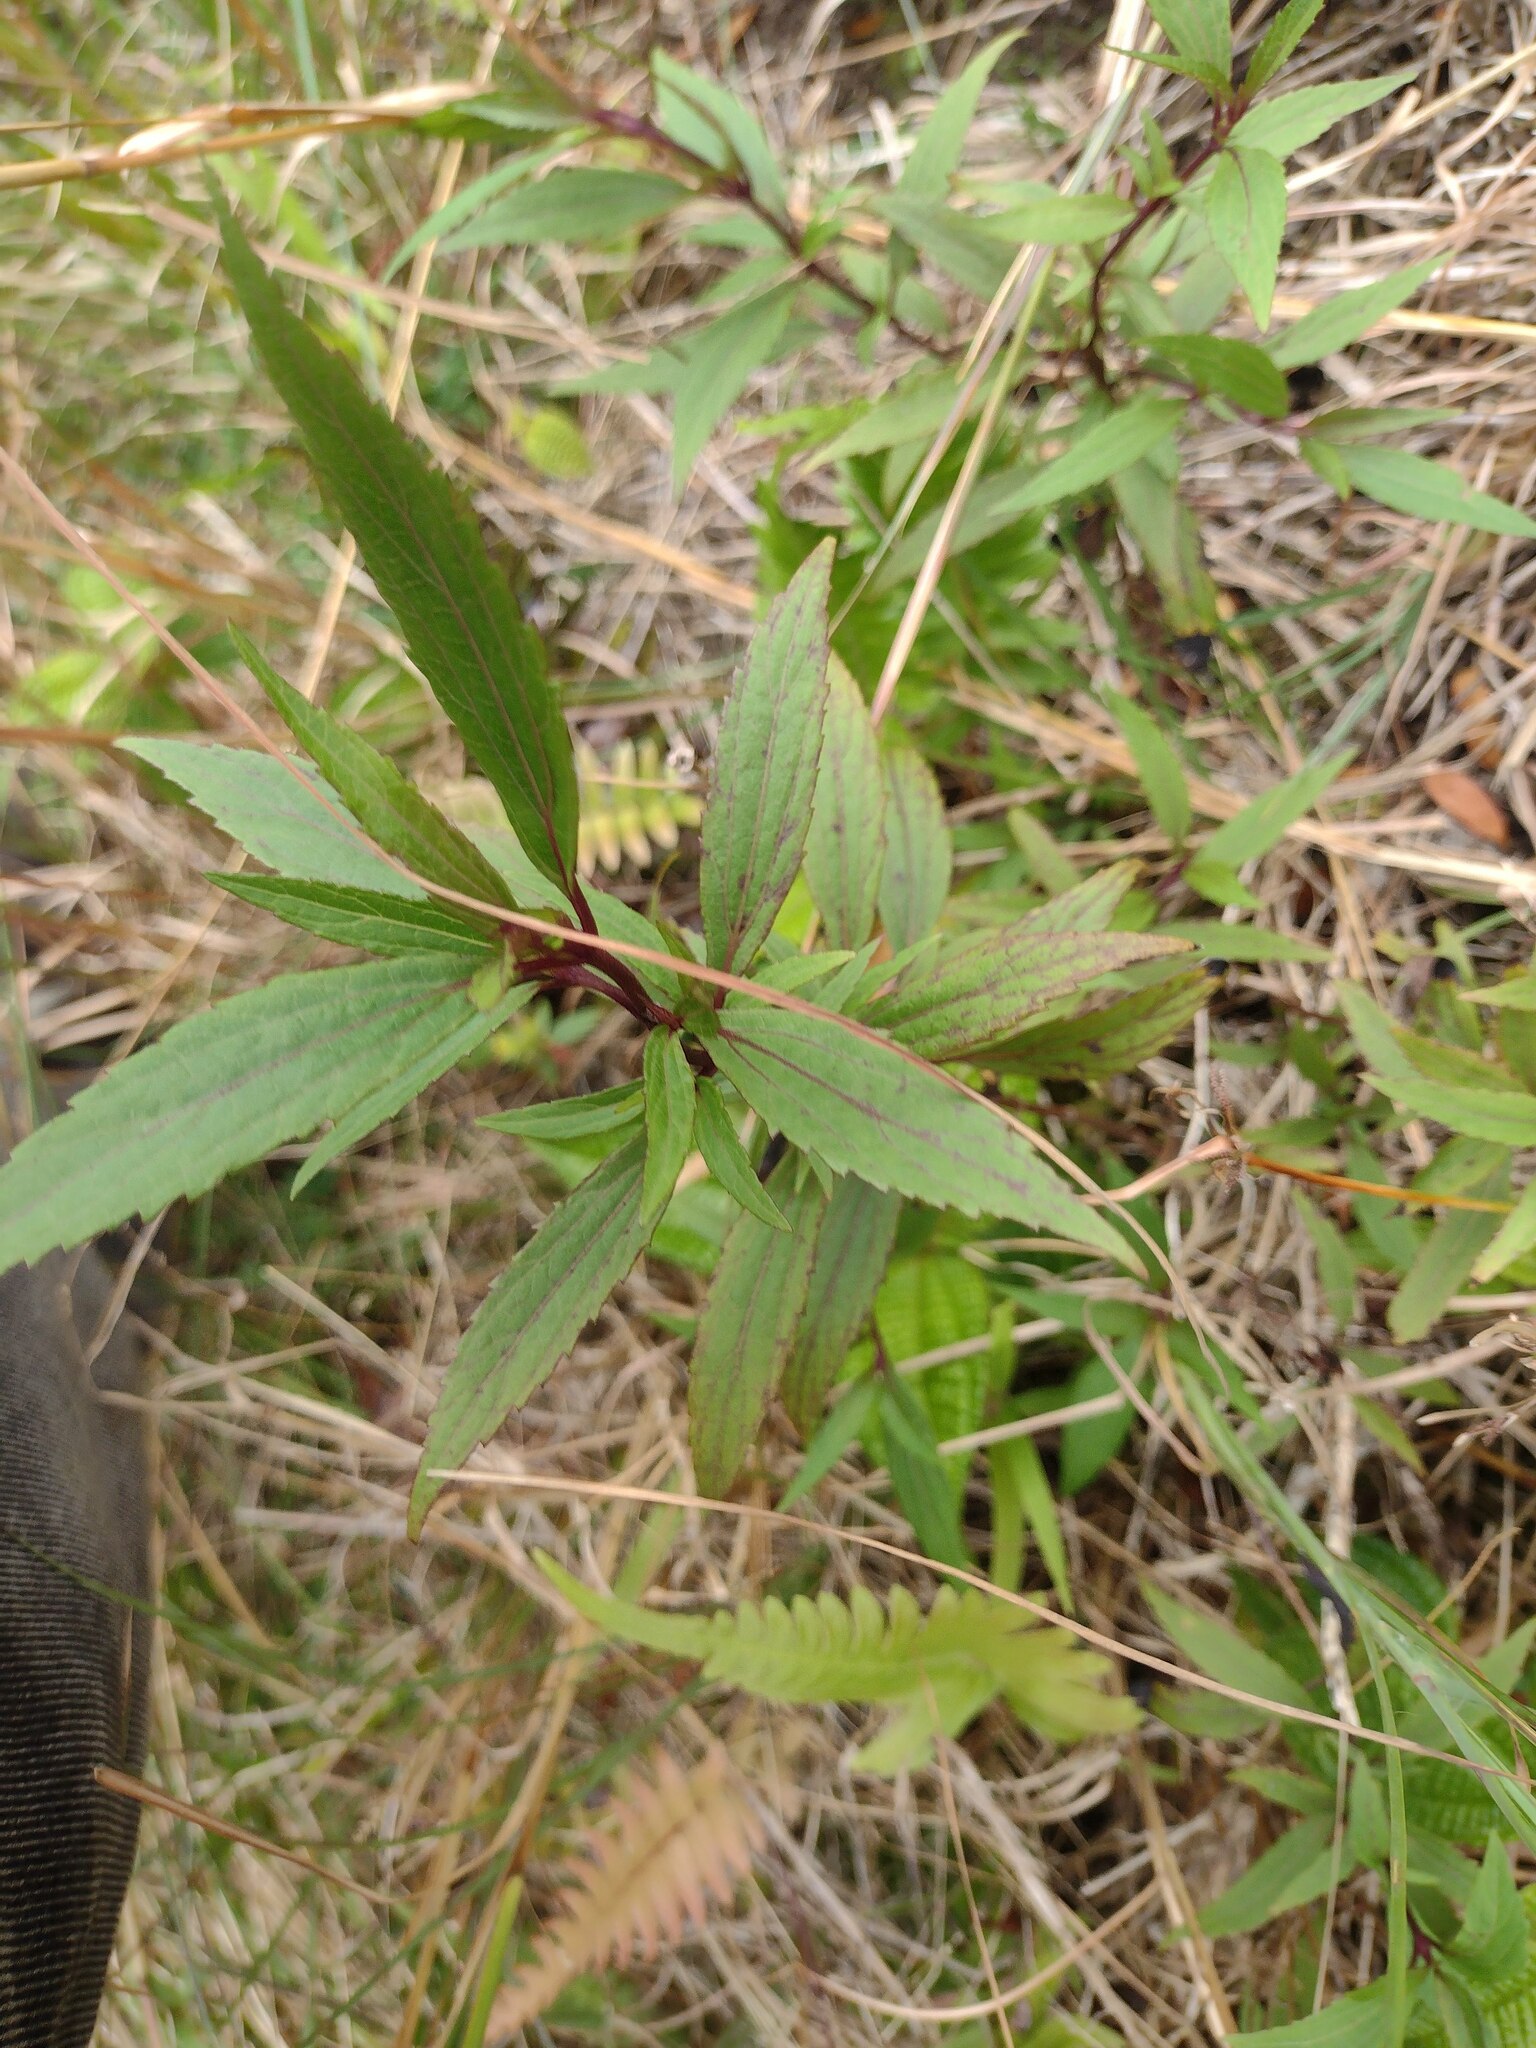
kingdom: Plantae
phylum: Tracheophyta
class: Magnoliopsida
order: Asterales
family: Asteraceae
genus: Ageratina
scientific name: Ageratina riparia
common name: Creeping croftonweed
